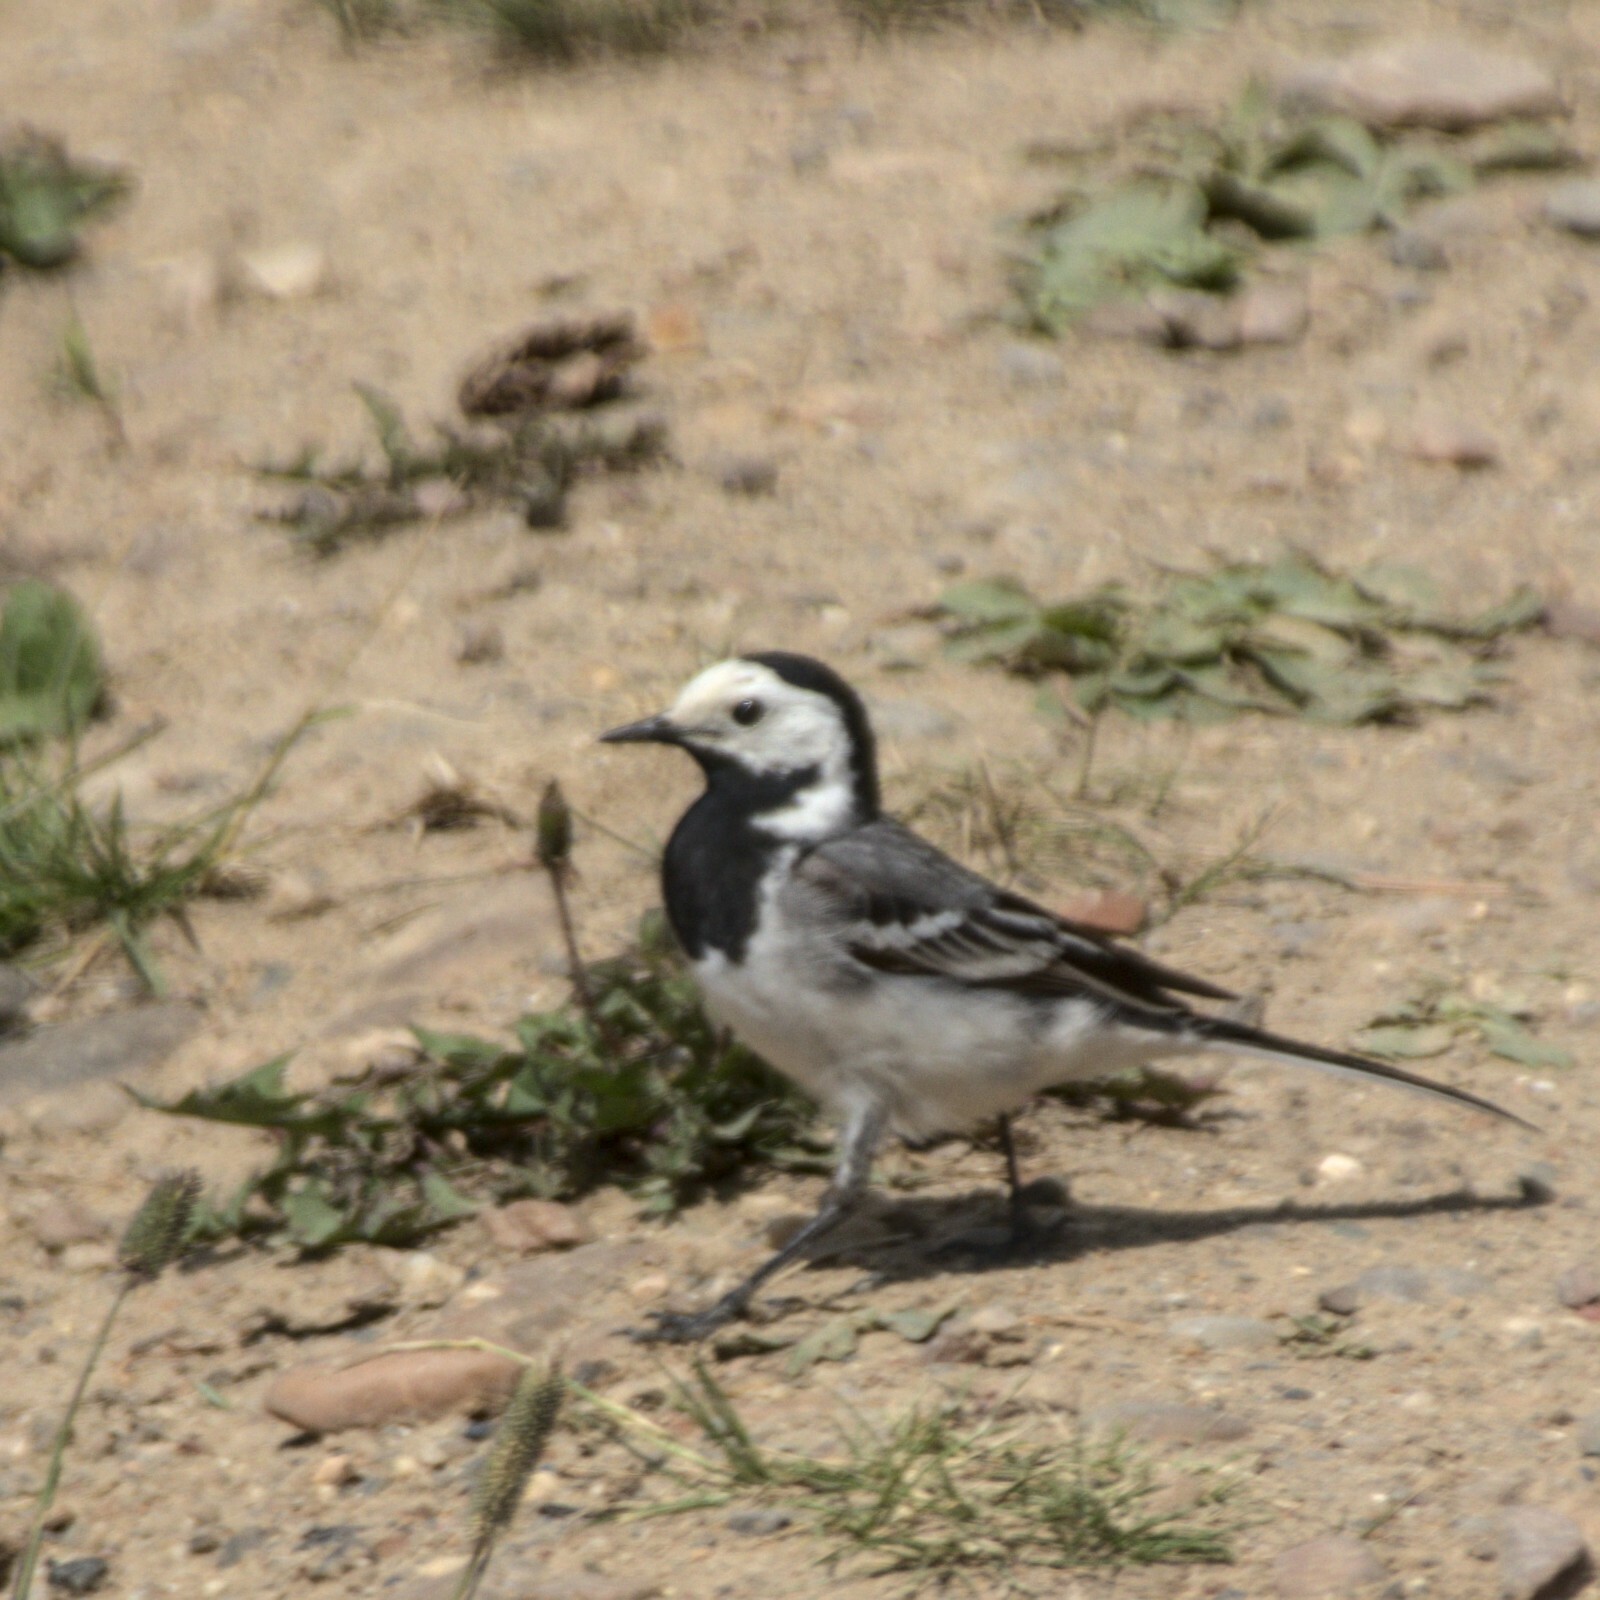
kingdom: Animalia
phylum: Chordata
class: Aves
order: Passeriformes
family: Motacillidae
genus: Motacilla
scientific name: Motacilla alba
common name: White wagtail
